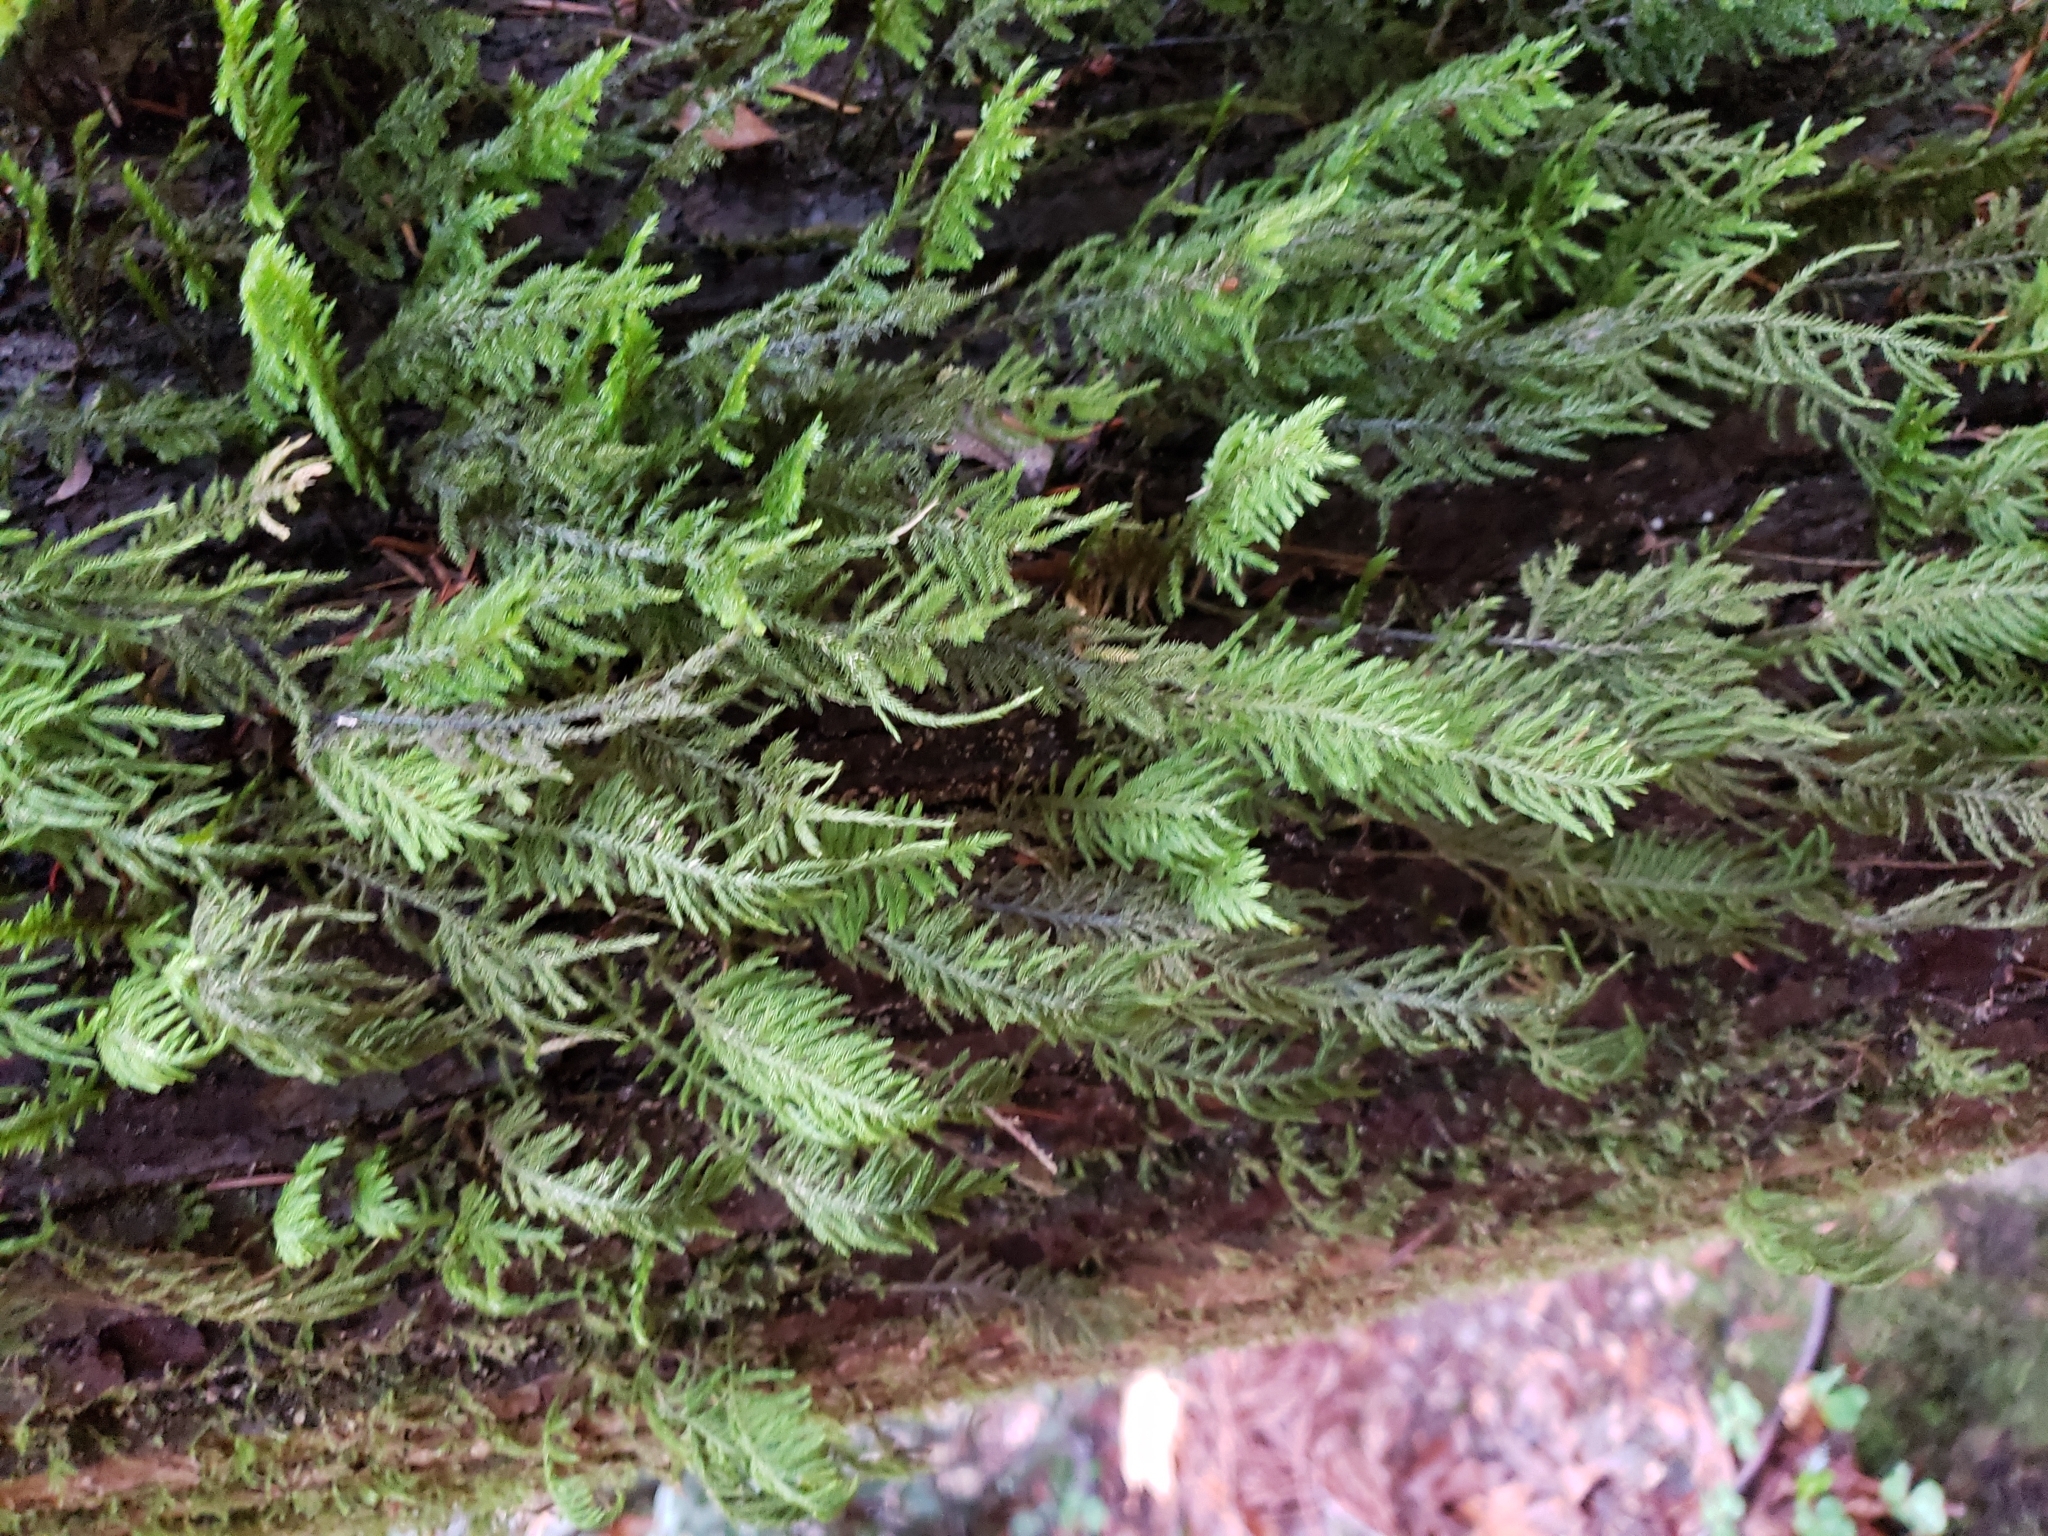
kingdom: Plantae
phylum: Bryophyta
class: Bryopsida
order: Hypnales
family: Cryphaeaceae
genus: Dendroalsia
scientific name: Dendroalsia abietina
